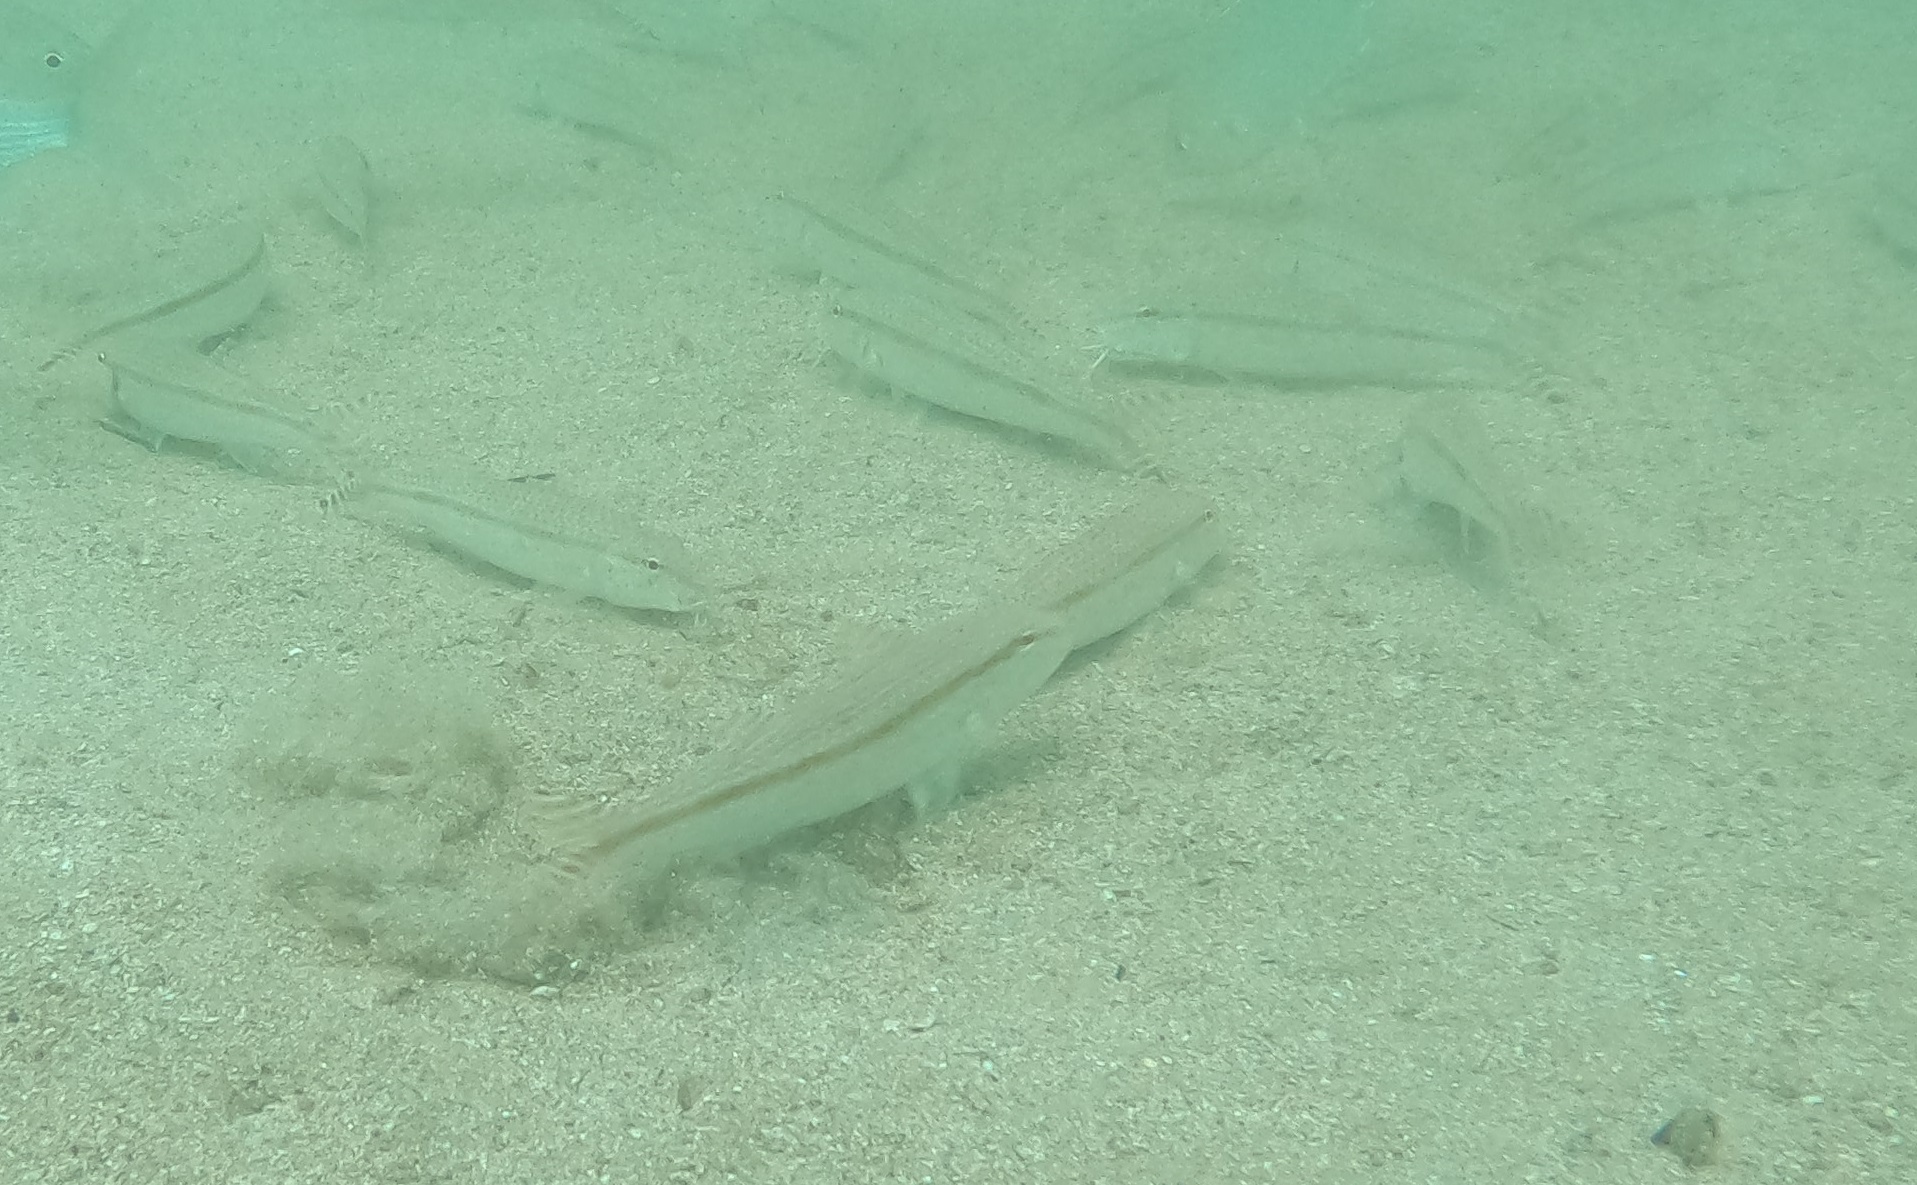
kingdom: Animalia
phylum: Chordata
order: Perciformes
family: Mullidae
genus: Upeneus
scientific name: Upeneus australiae
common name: Australian goatfish
